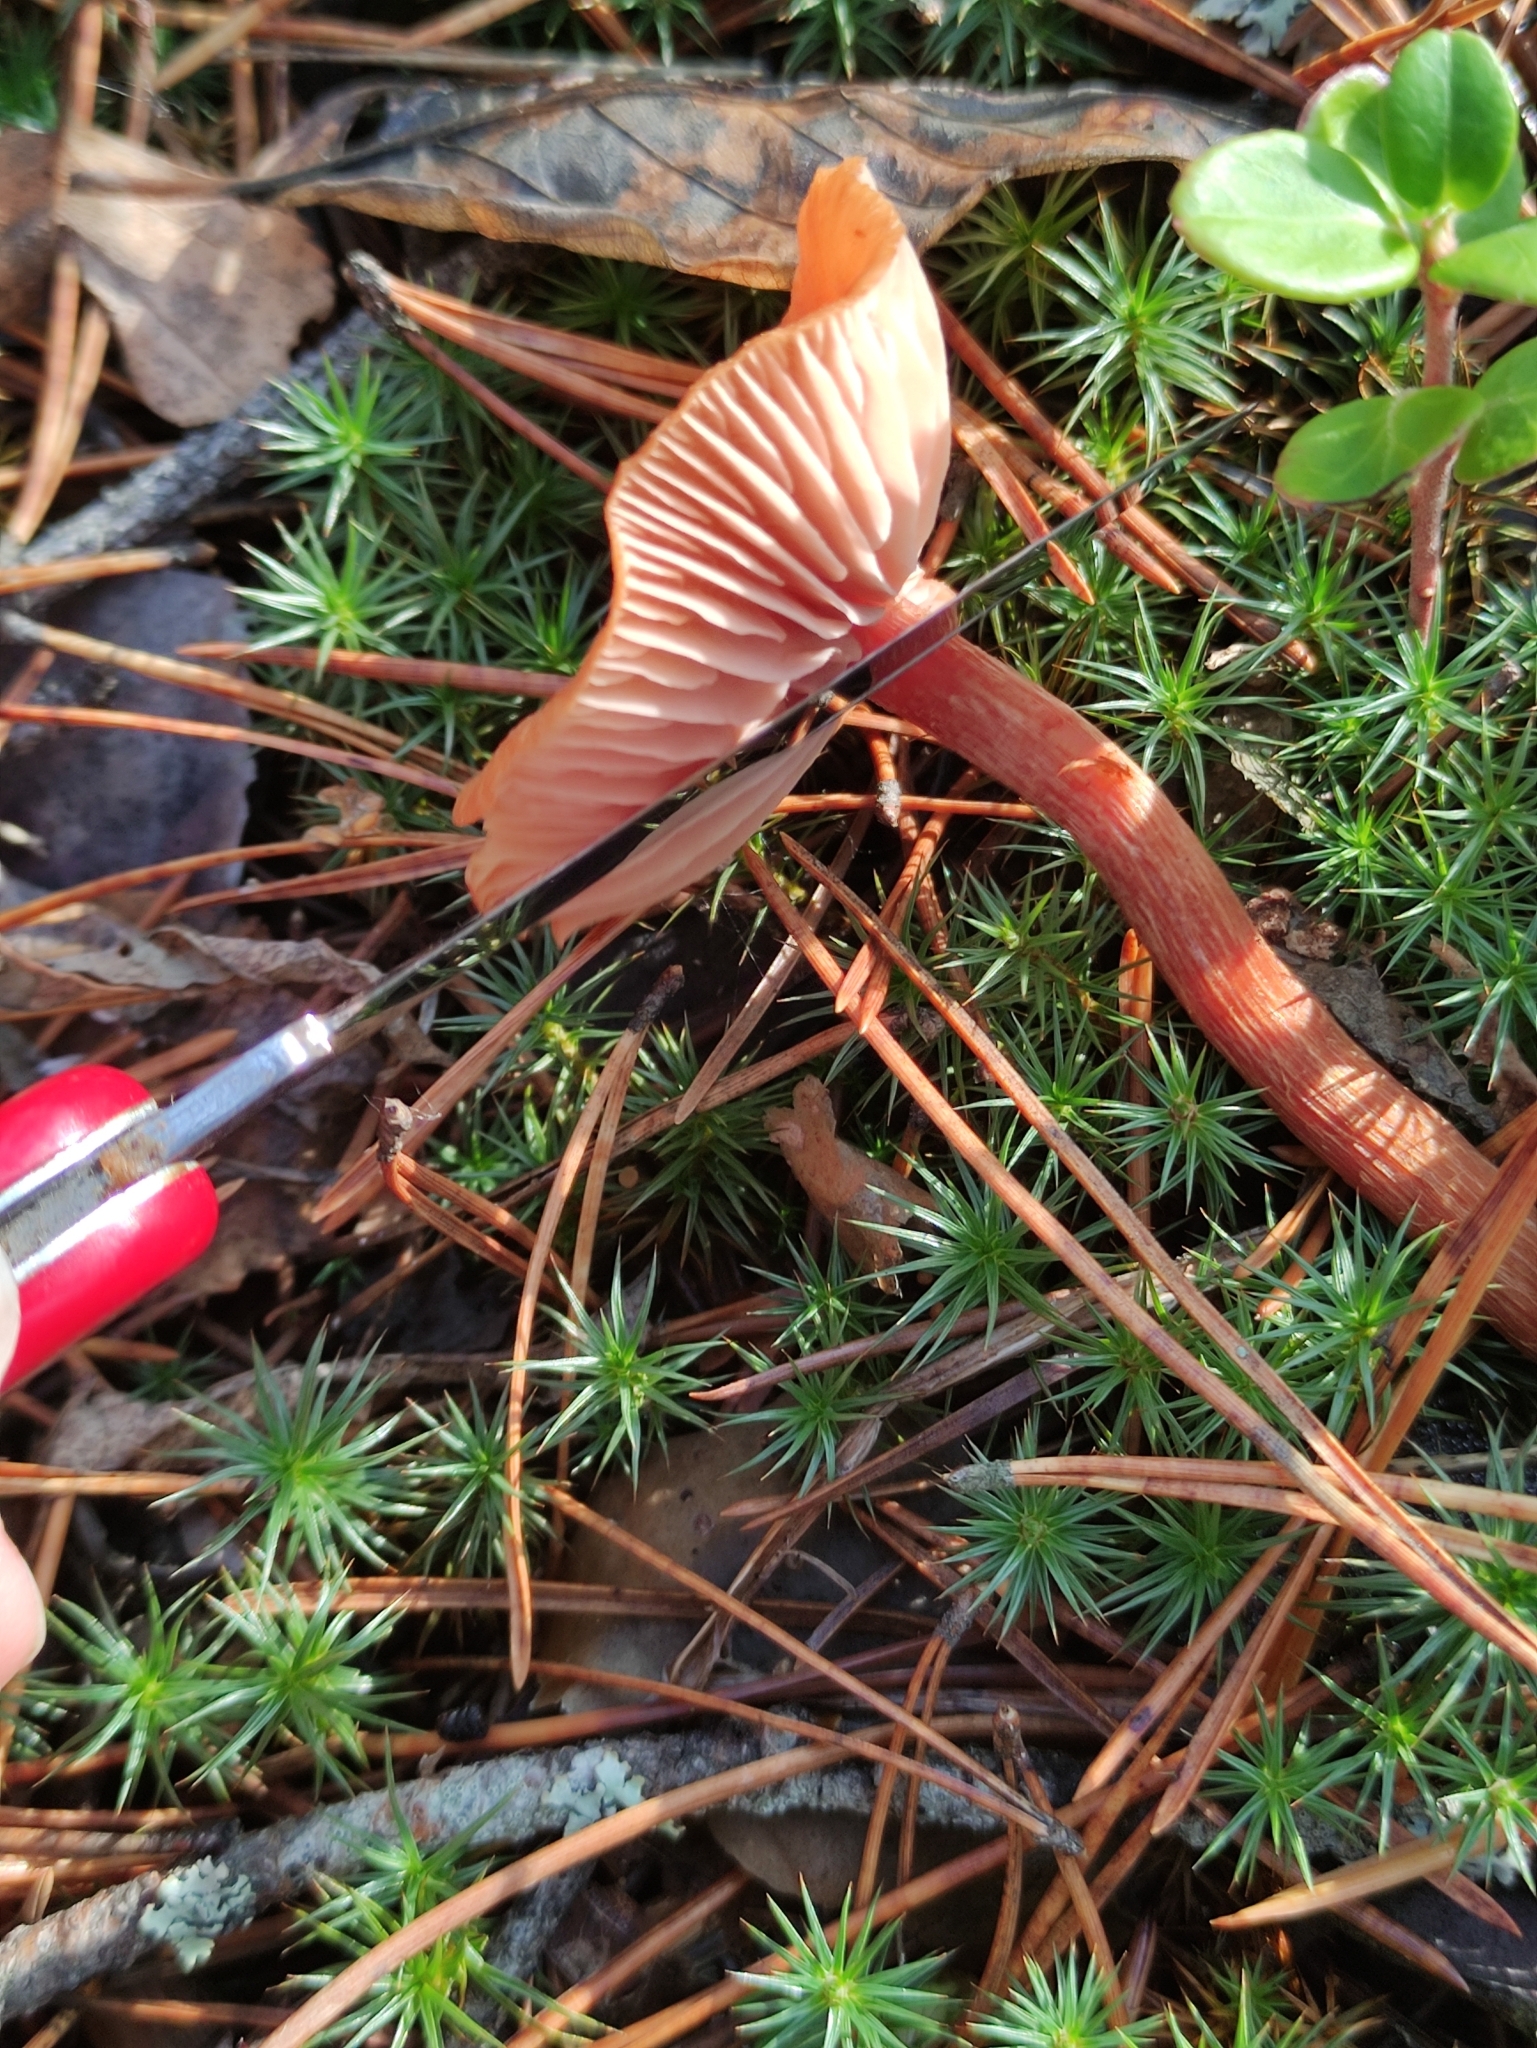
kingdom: Fungi
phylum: Basidiomycota
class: Agaricomycetes
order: Agaricales
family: Hydnangiaceae
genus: Laccaria
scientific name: Laccaria proxima
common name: Scurfy deceiver
